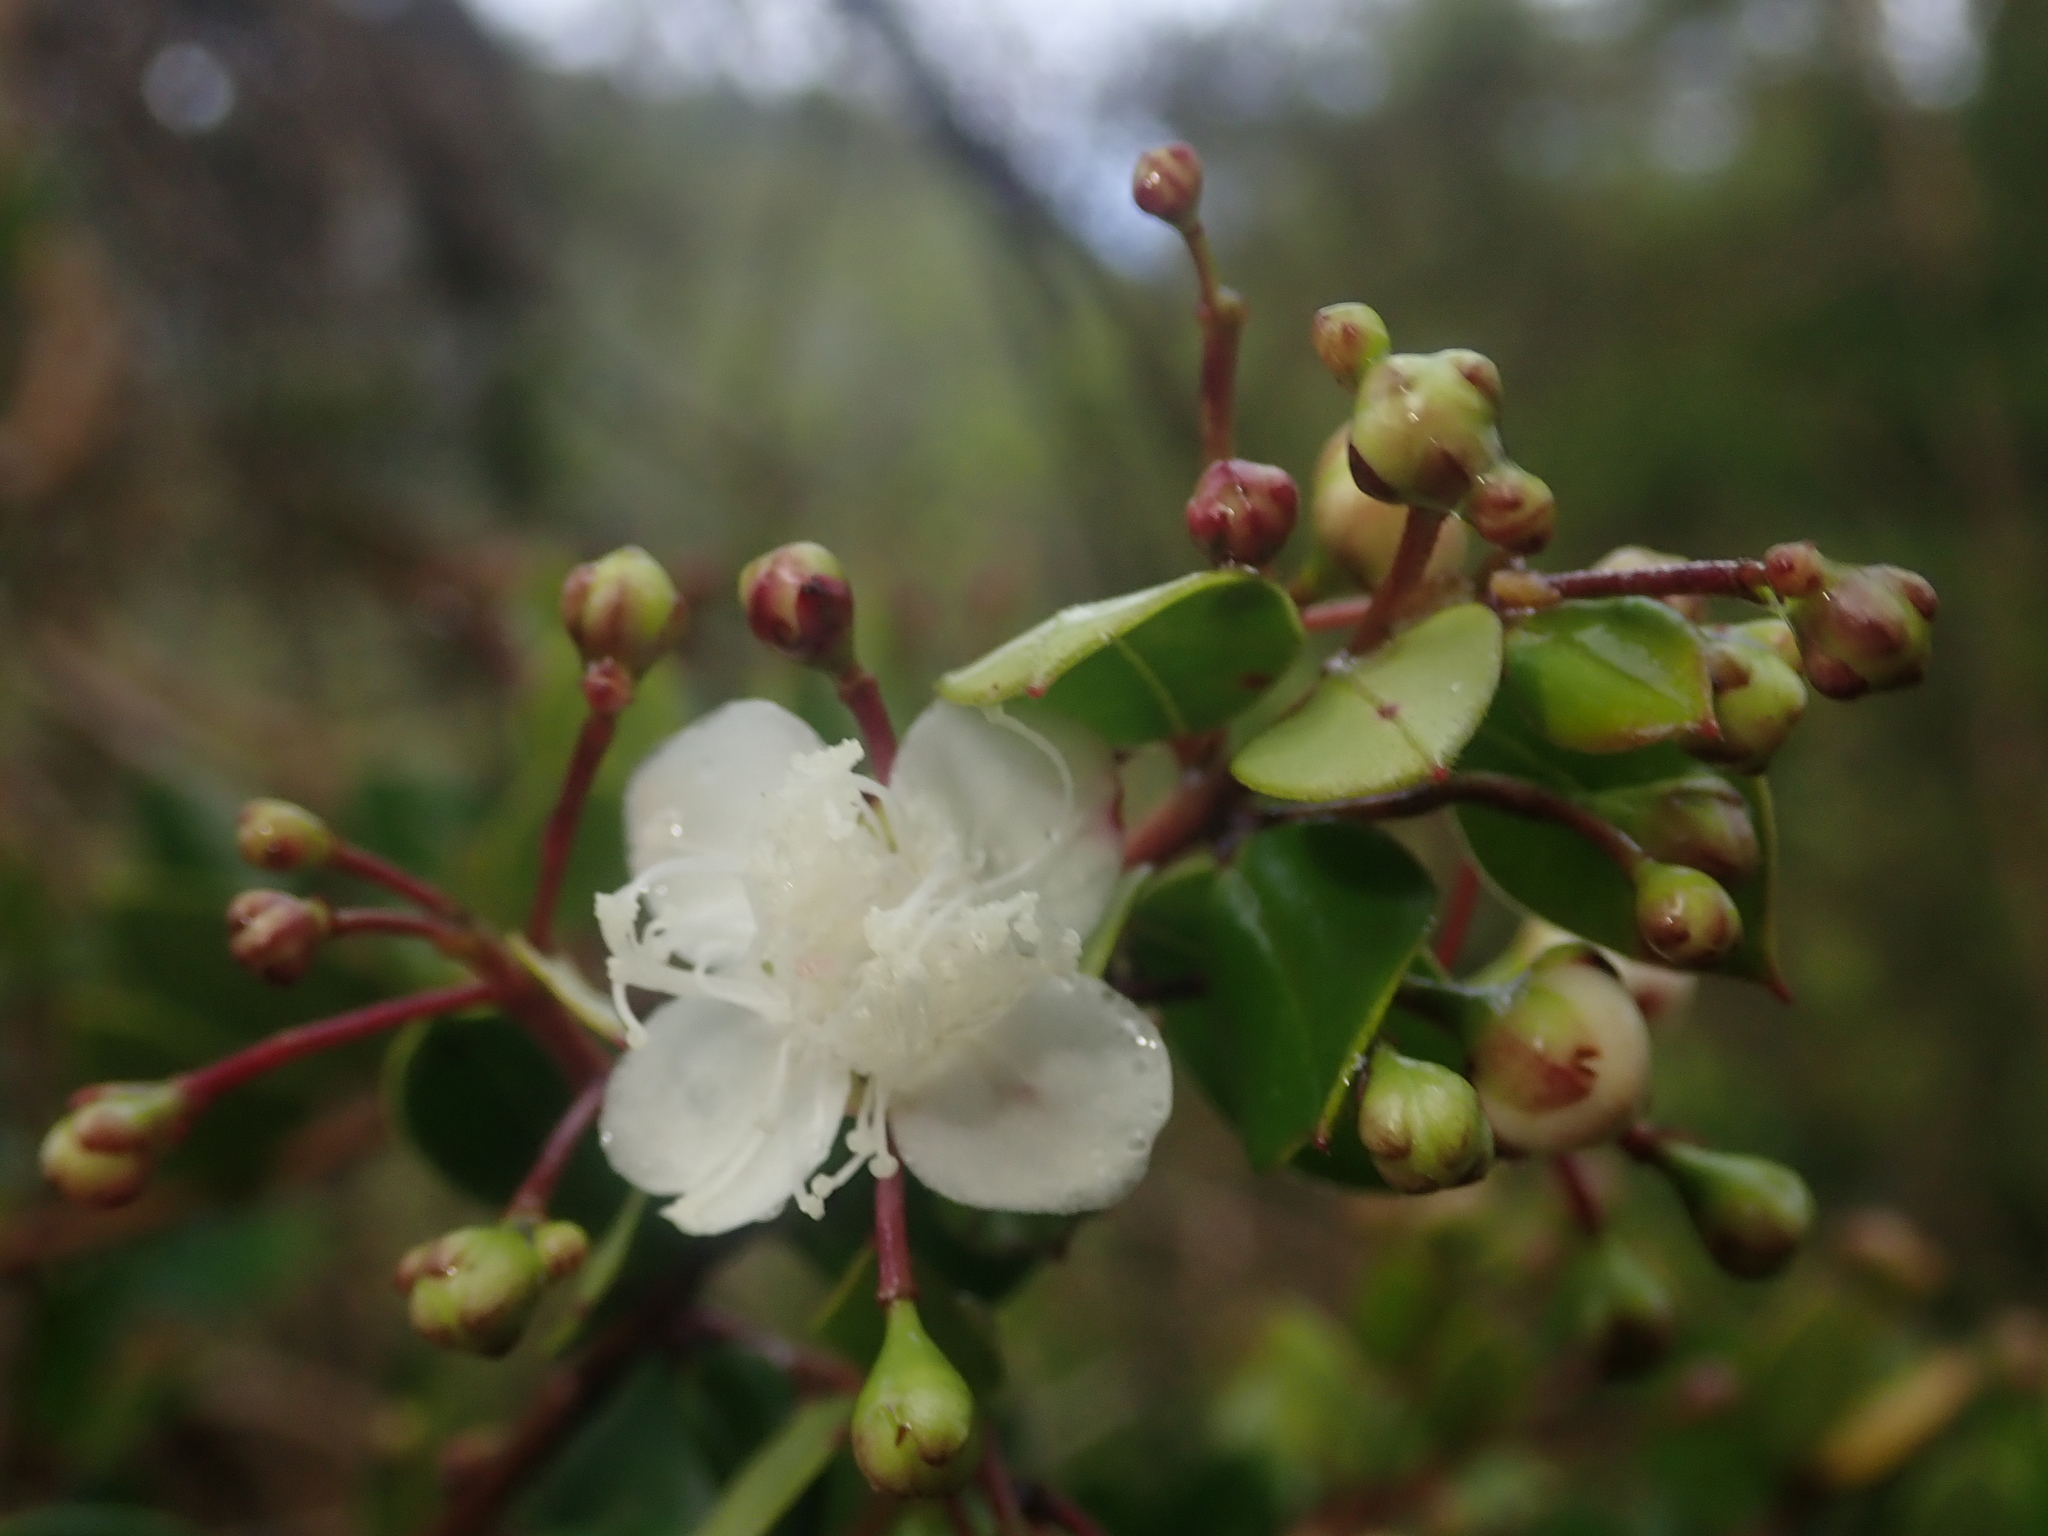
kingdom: Plantae
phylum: Tracheophyta
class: Magnoliopsida
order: Myrtales
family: Myrtaceae
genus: Luma
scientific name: Luma apiculata
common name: Chilean myrtle
